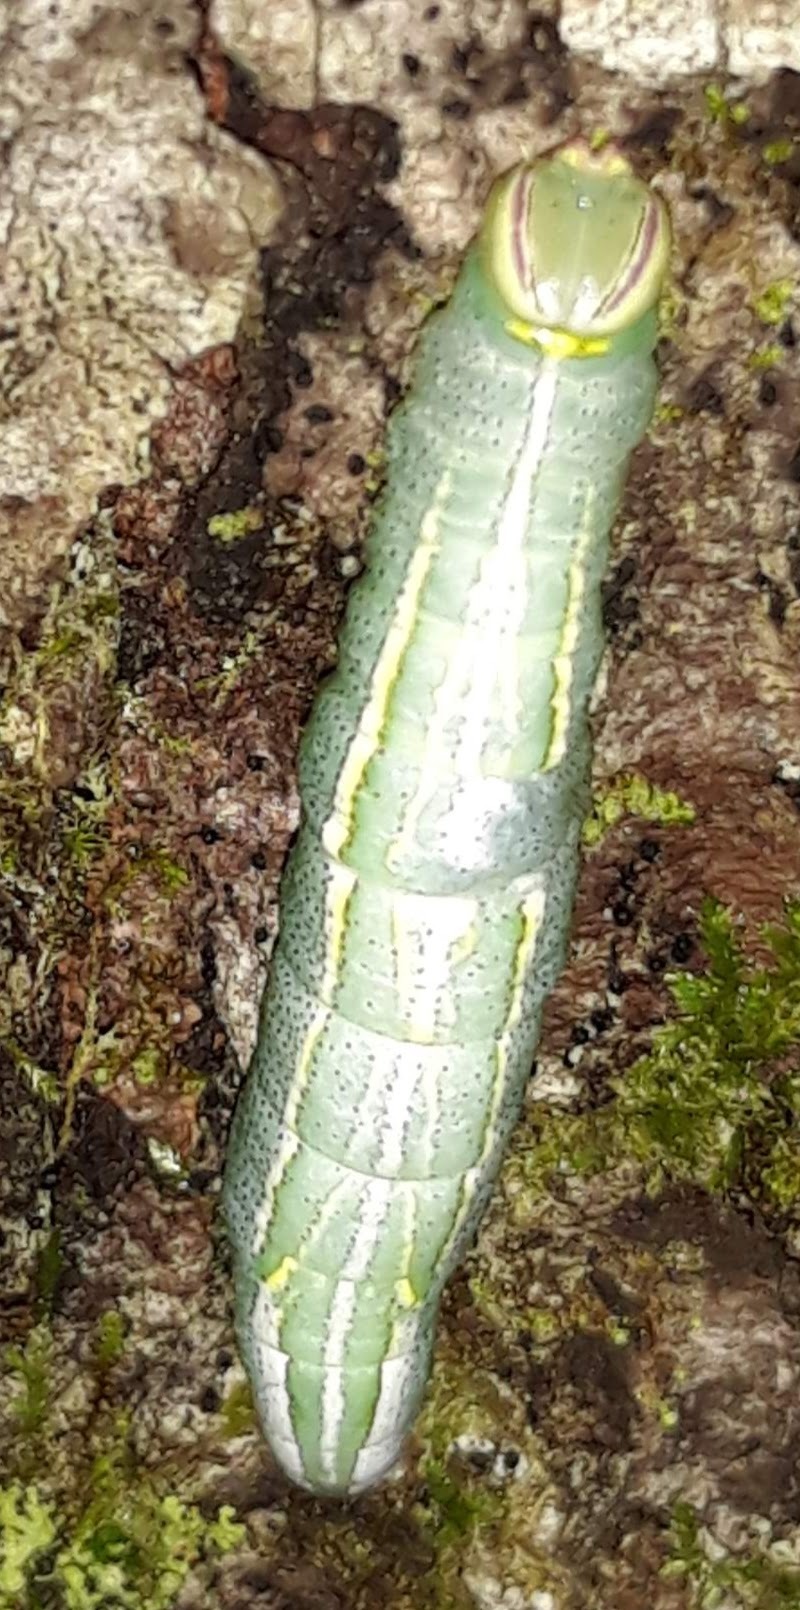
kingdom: Animalia
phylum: Arthropoda
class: Insecta
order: Lepidoptera
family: Notodontidae
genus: Disphragis
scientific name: Disphragis Cecrita guttivitta
